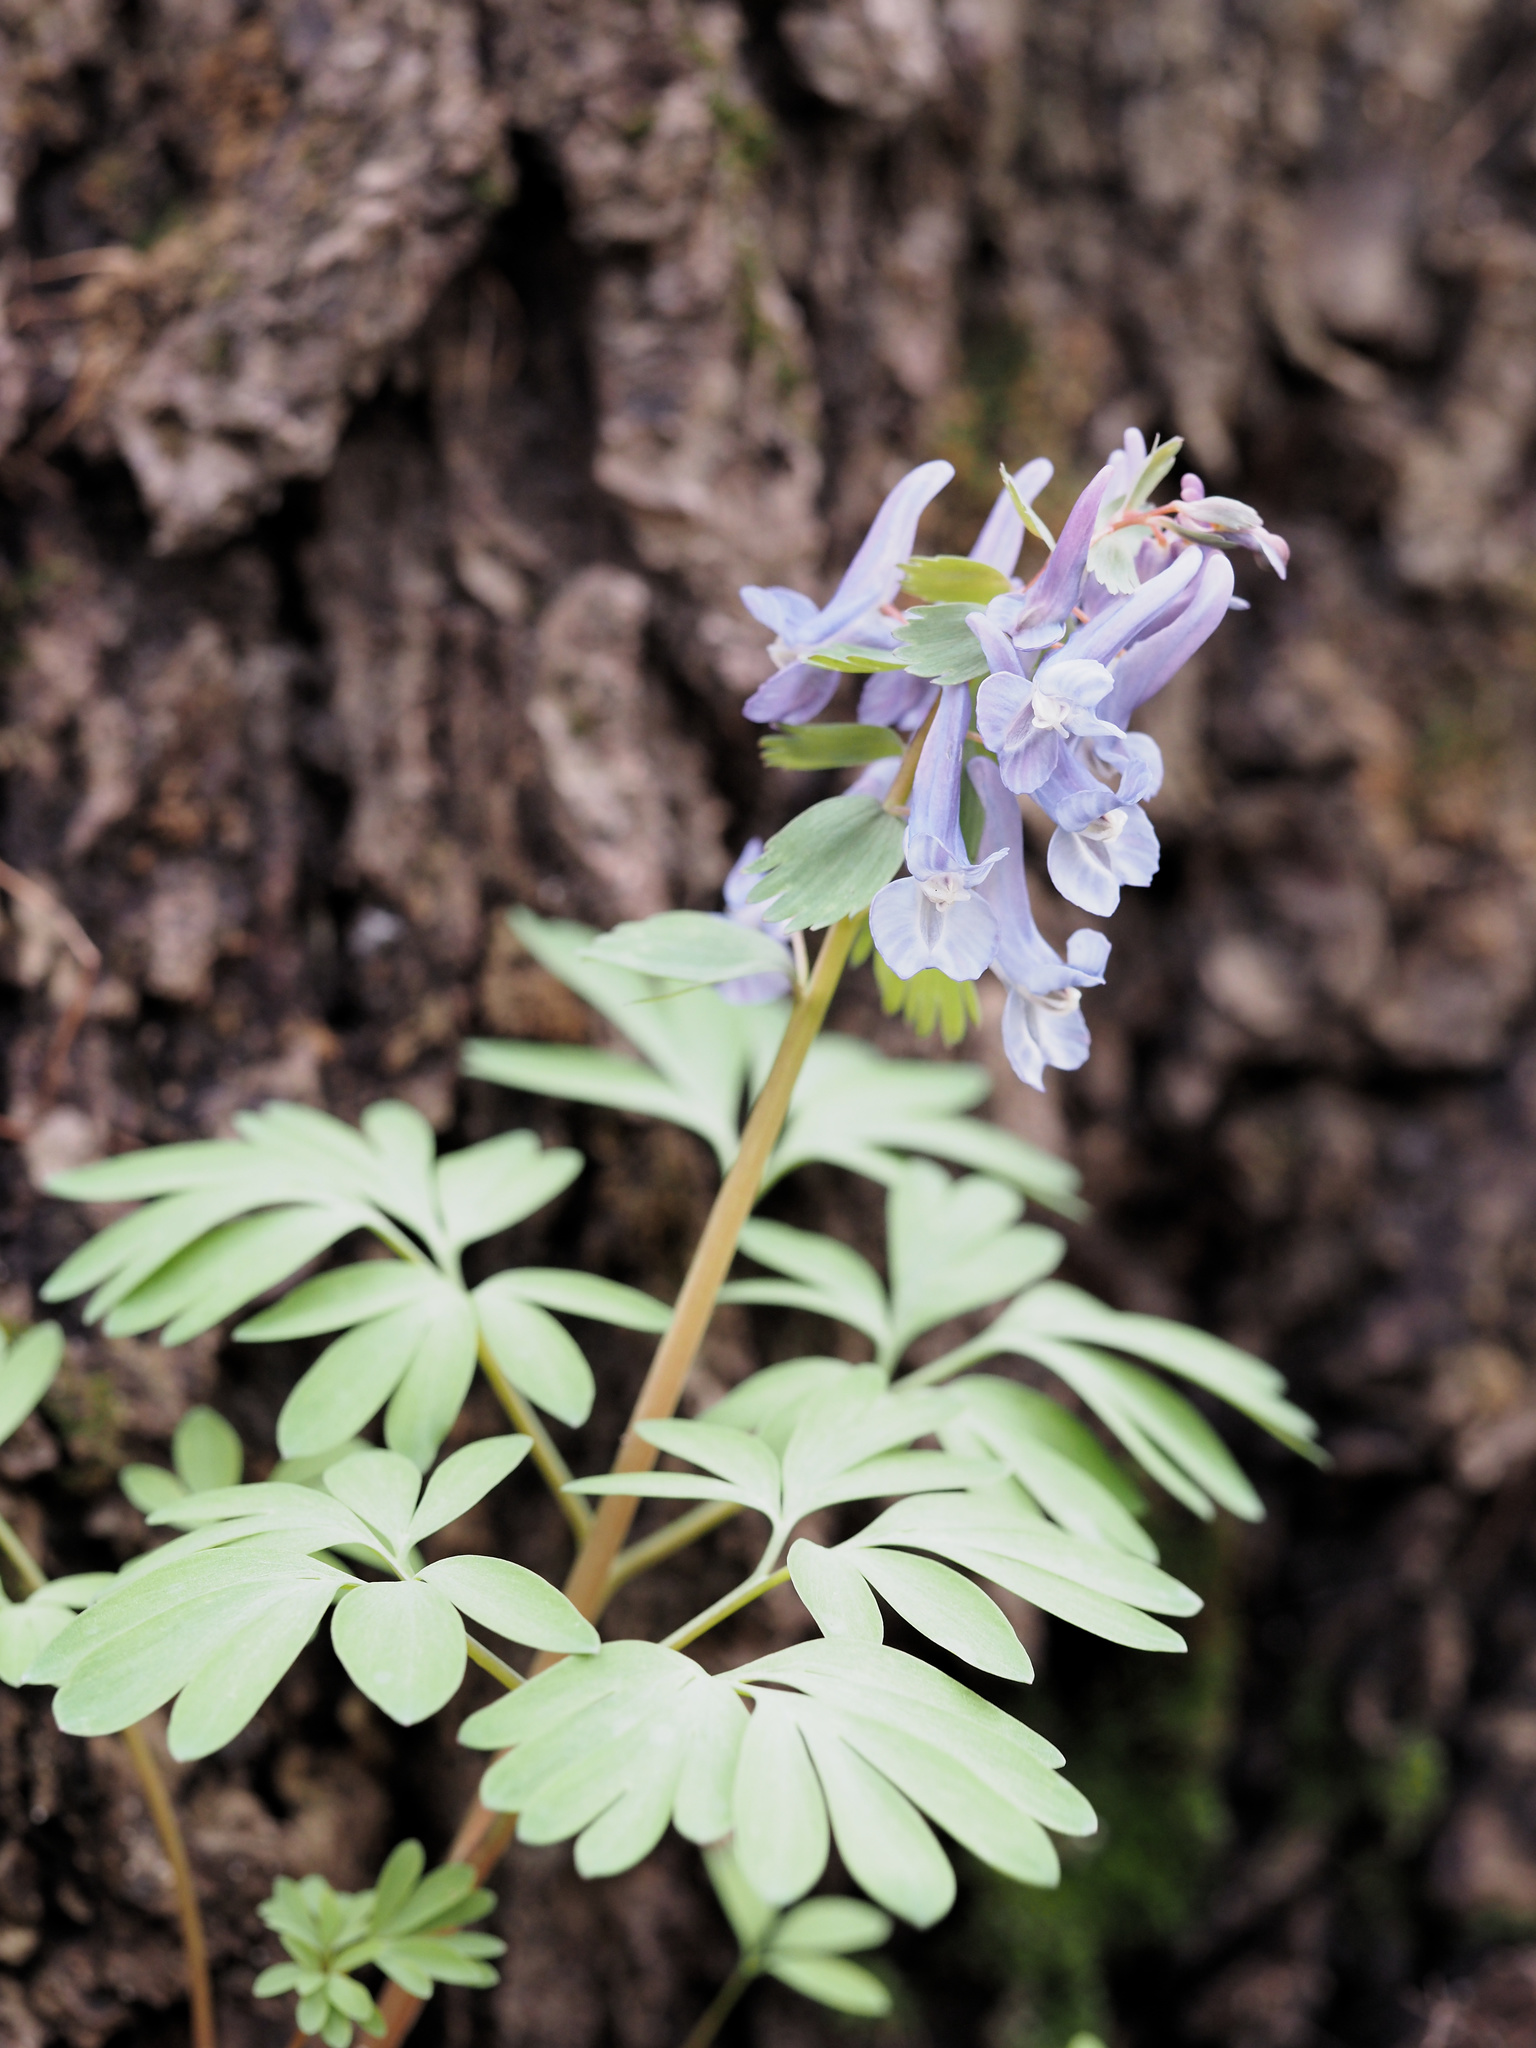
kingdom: Plantae
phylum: Tracheophyta
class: Magnoliopsida
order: Ranunculales
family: Papaveraceae
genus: Corydalis
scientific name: Corydalis solida
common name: Bird-in-a-bush
